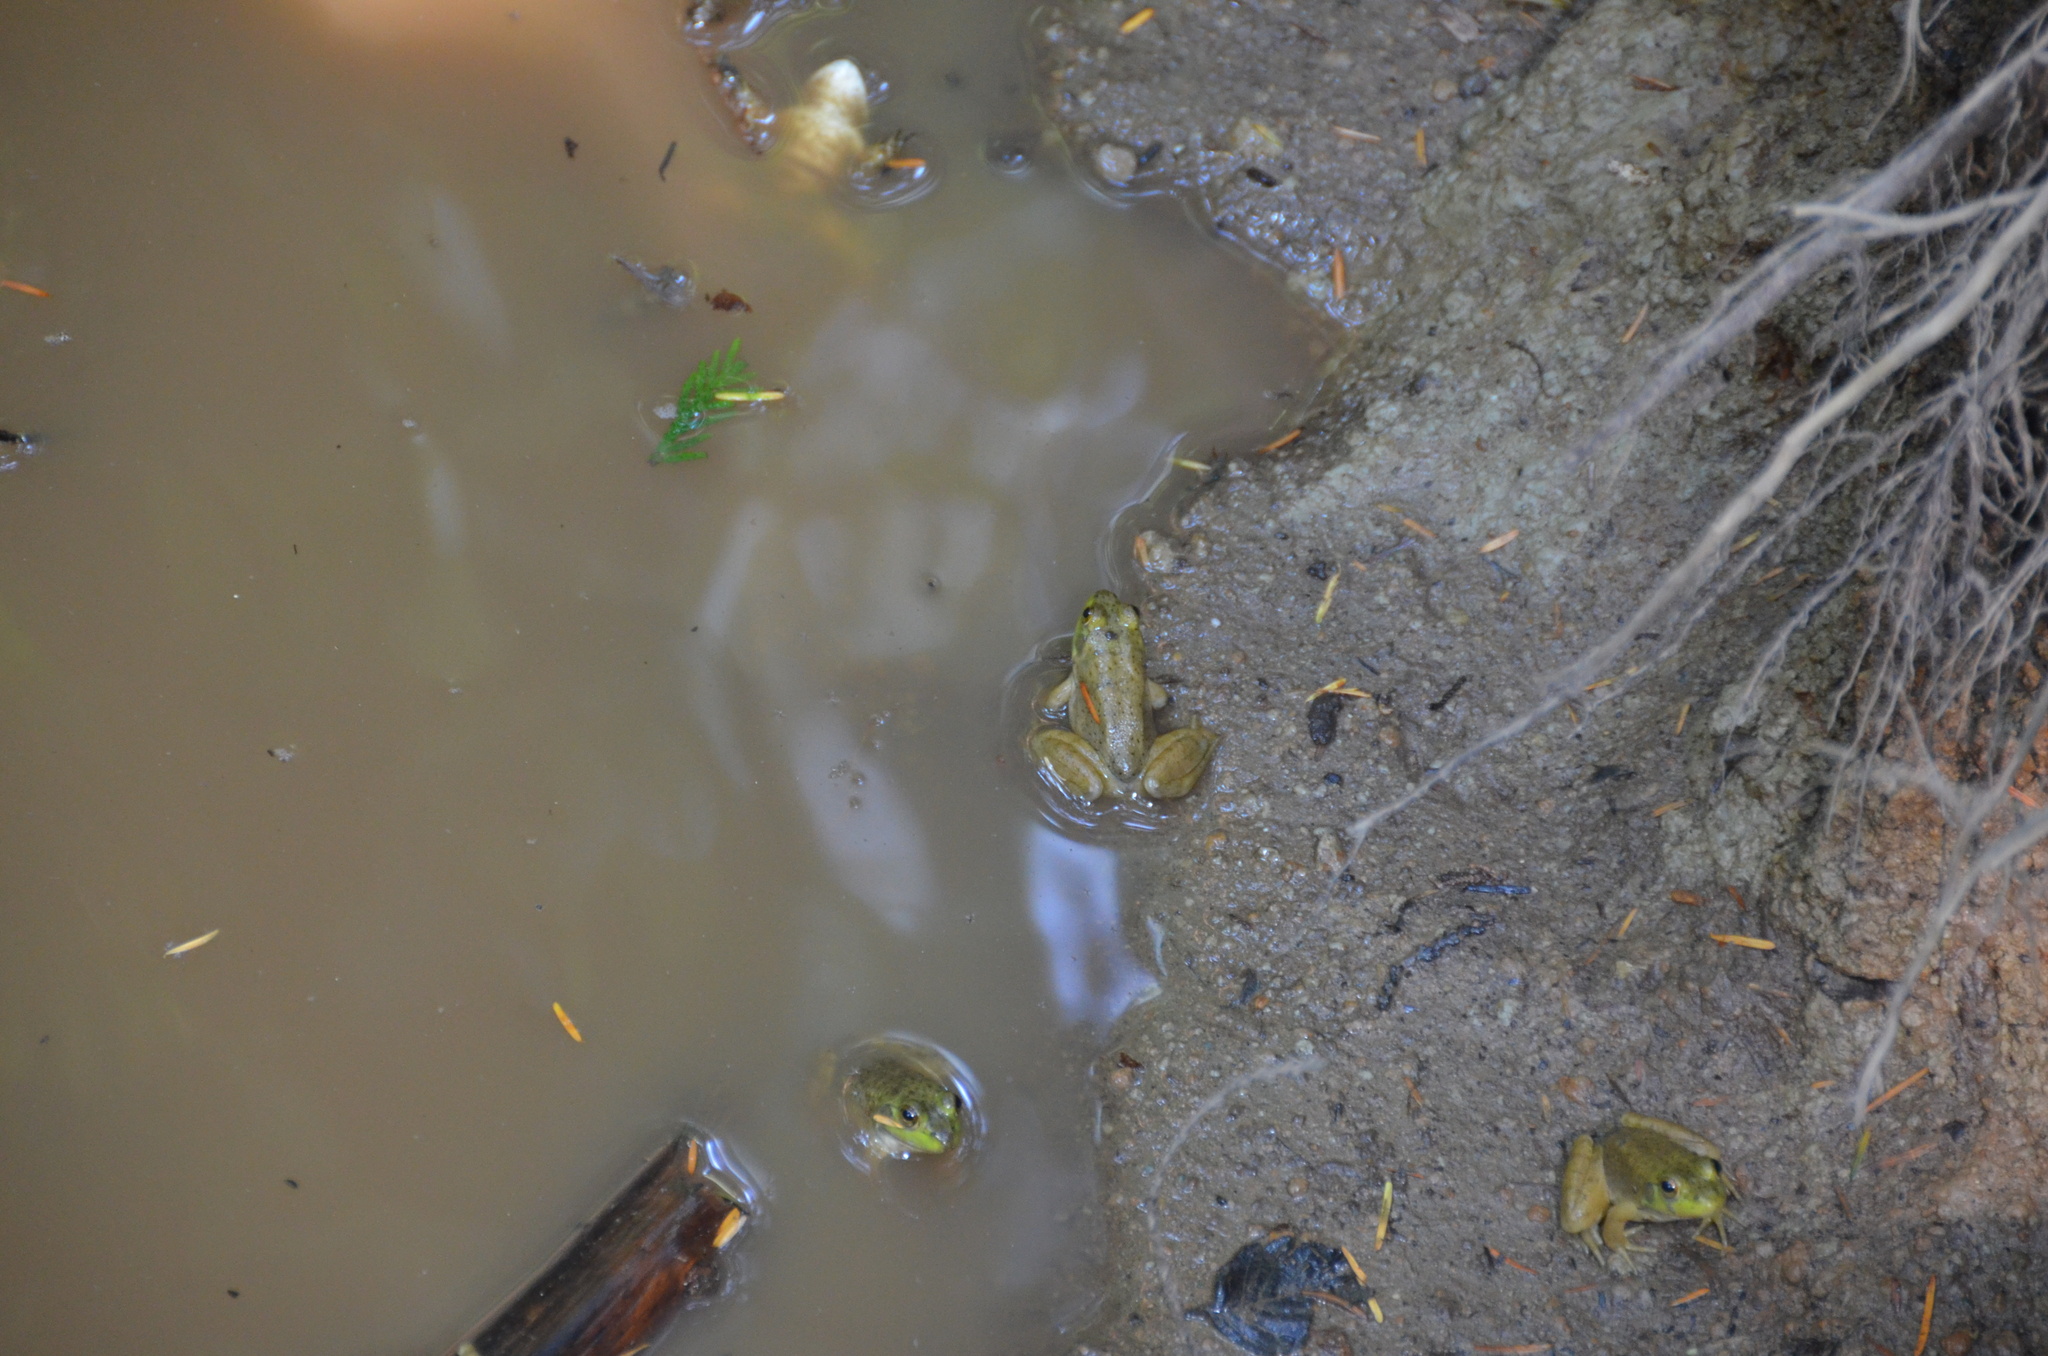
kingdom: Animalia
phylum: Chordata
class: Amphibia
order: Anura
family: Ranidae
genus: Lithobates
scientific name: Lithobates catesbeianus
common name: American bullfrog
